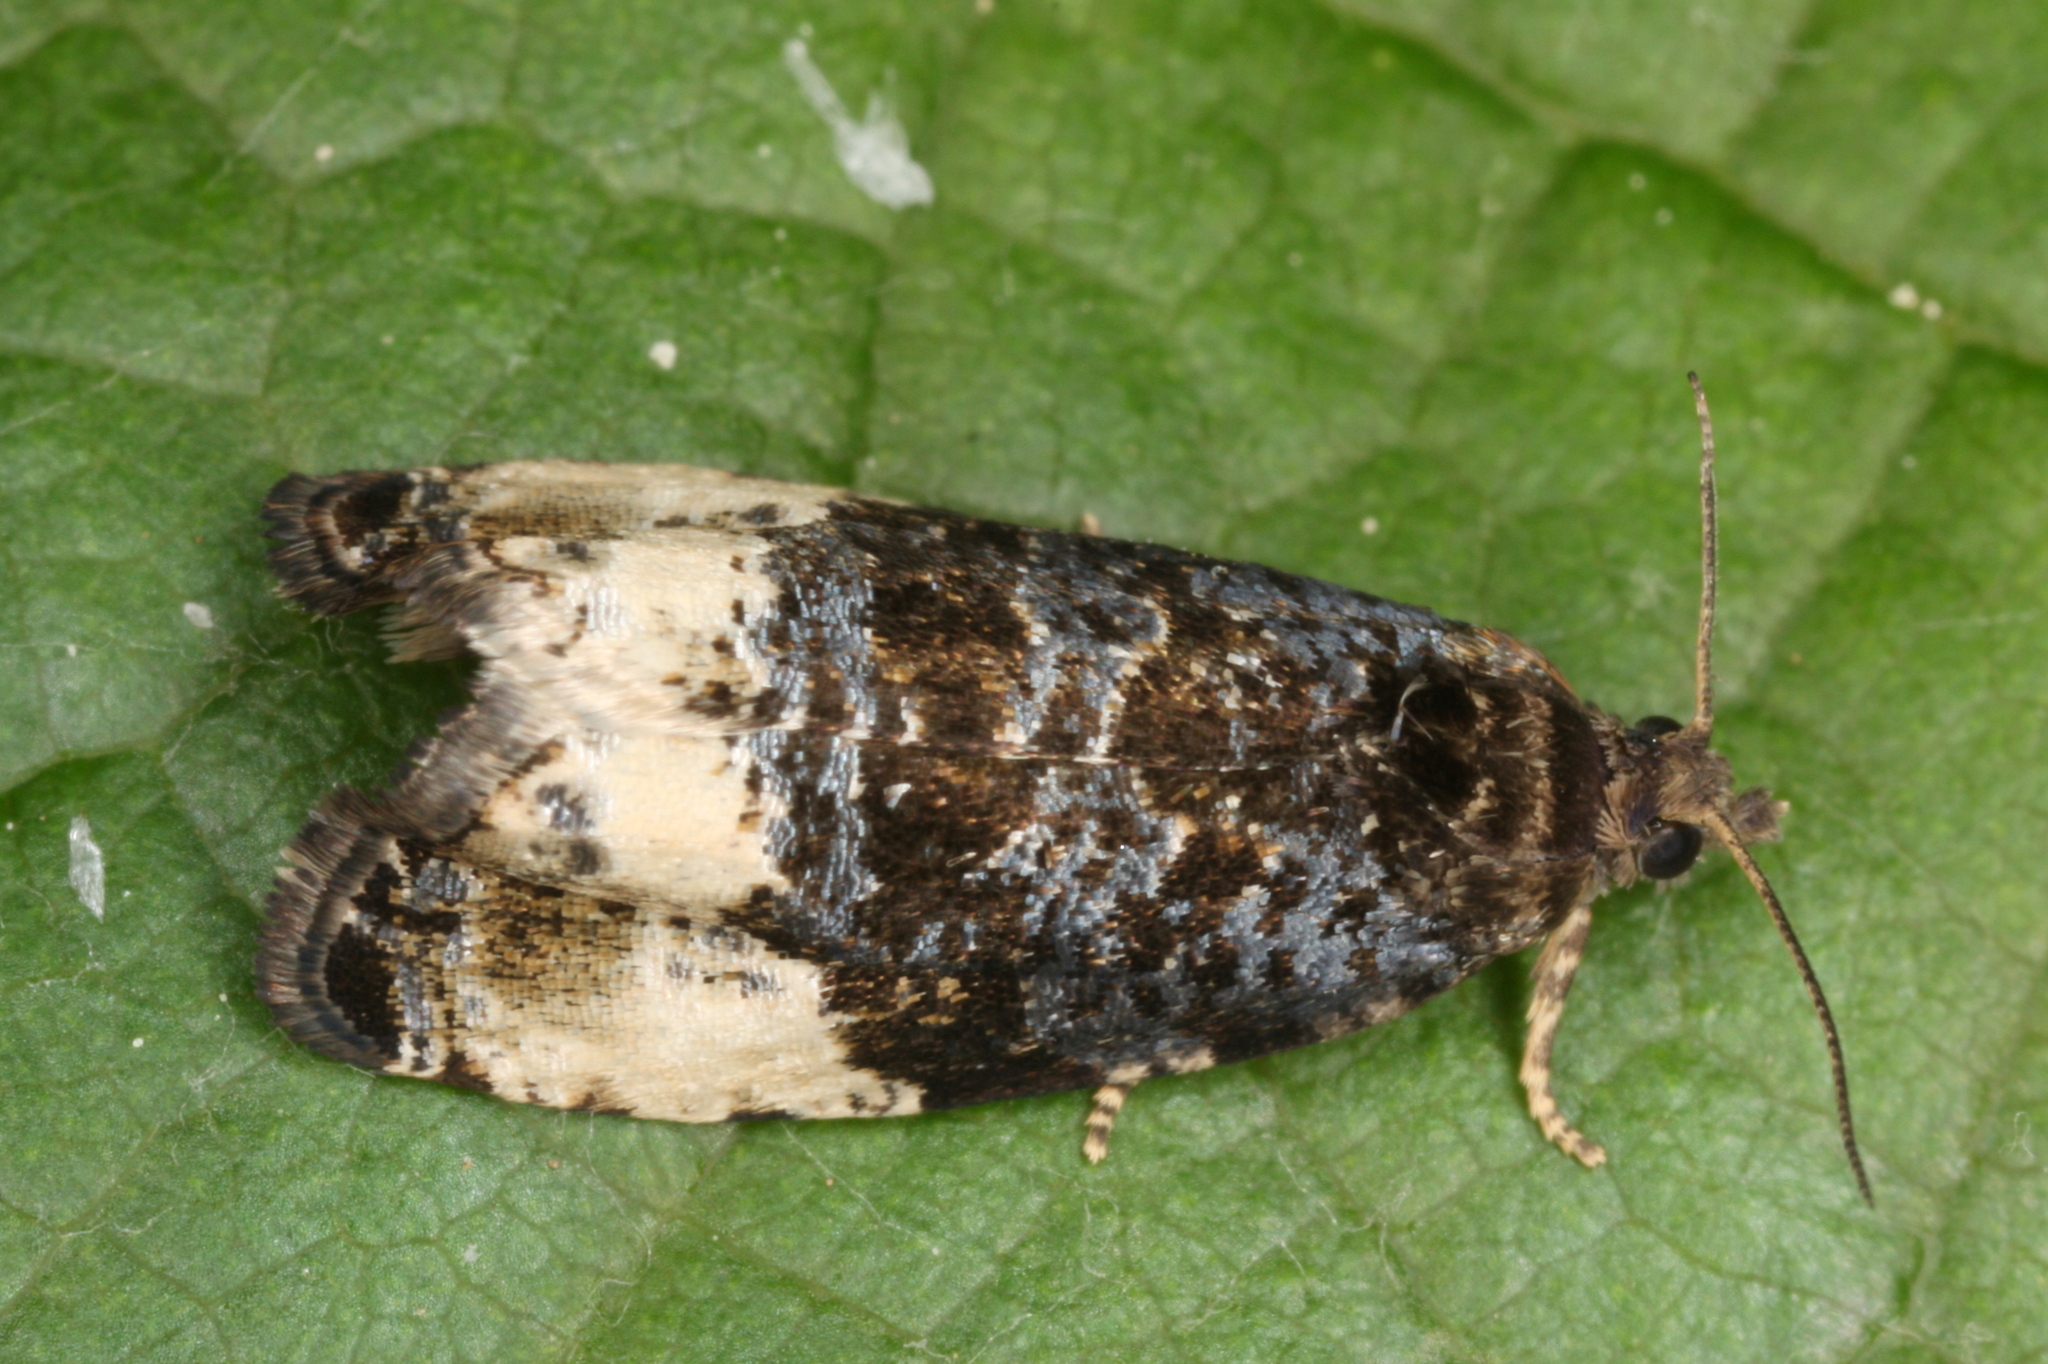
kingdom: Animalia
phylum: Arthropoda
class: Insecta
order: Lepidoptera
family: Tortricidae
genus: Hedya
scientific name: Hedya pruniana
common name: Plum tortrix
